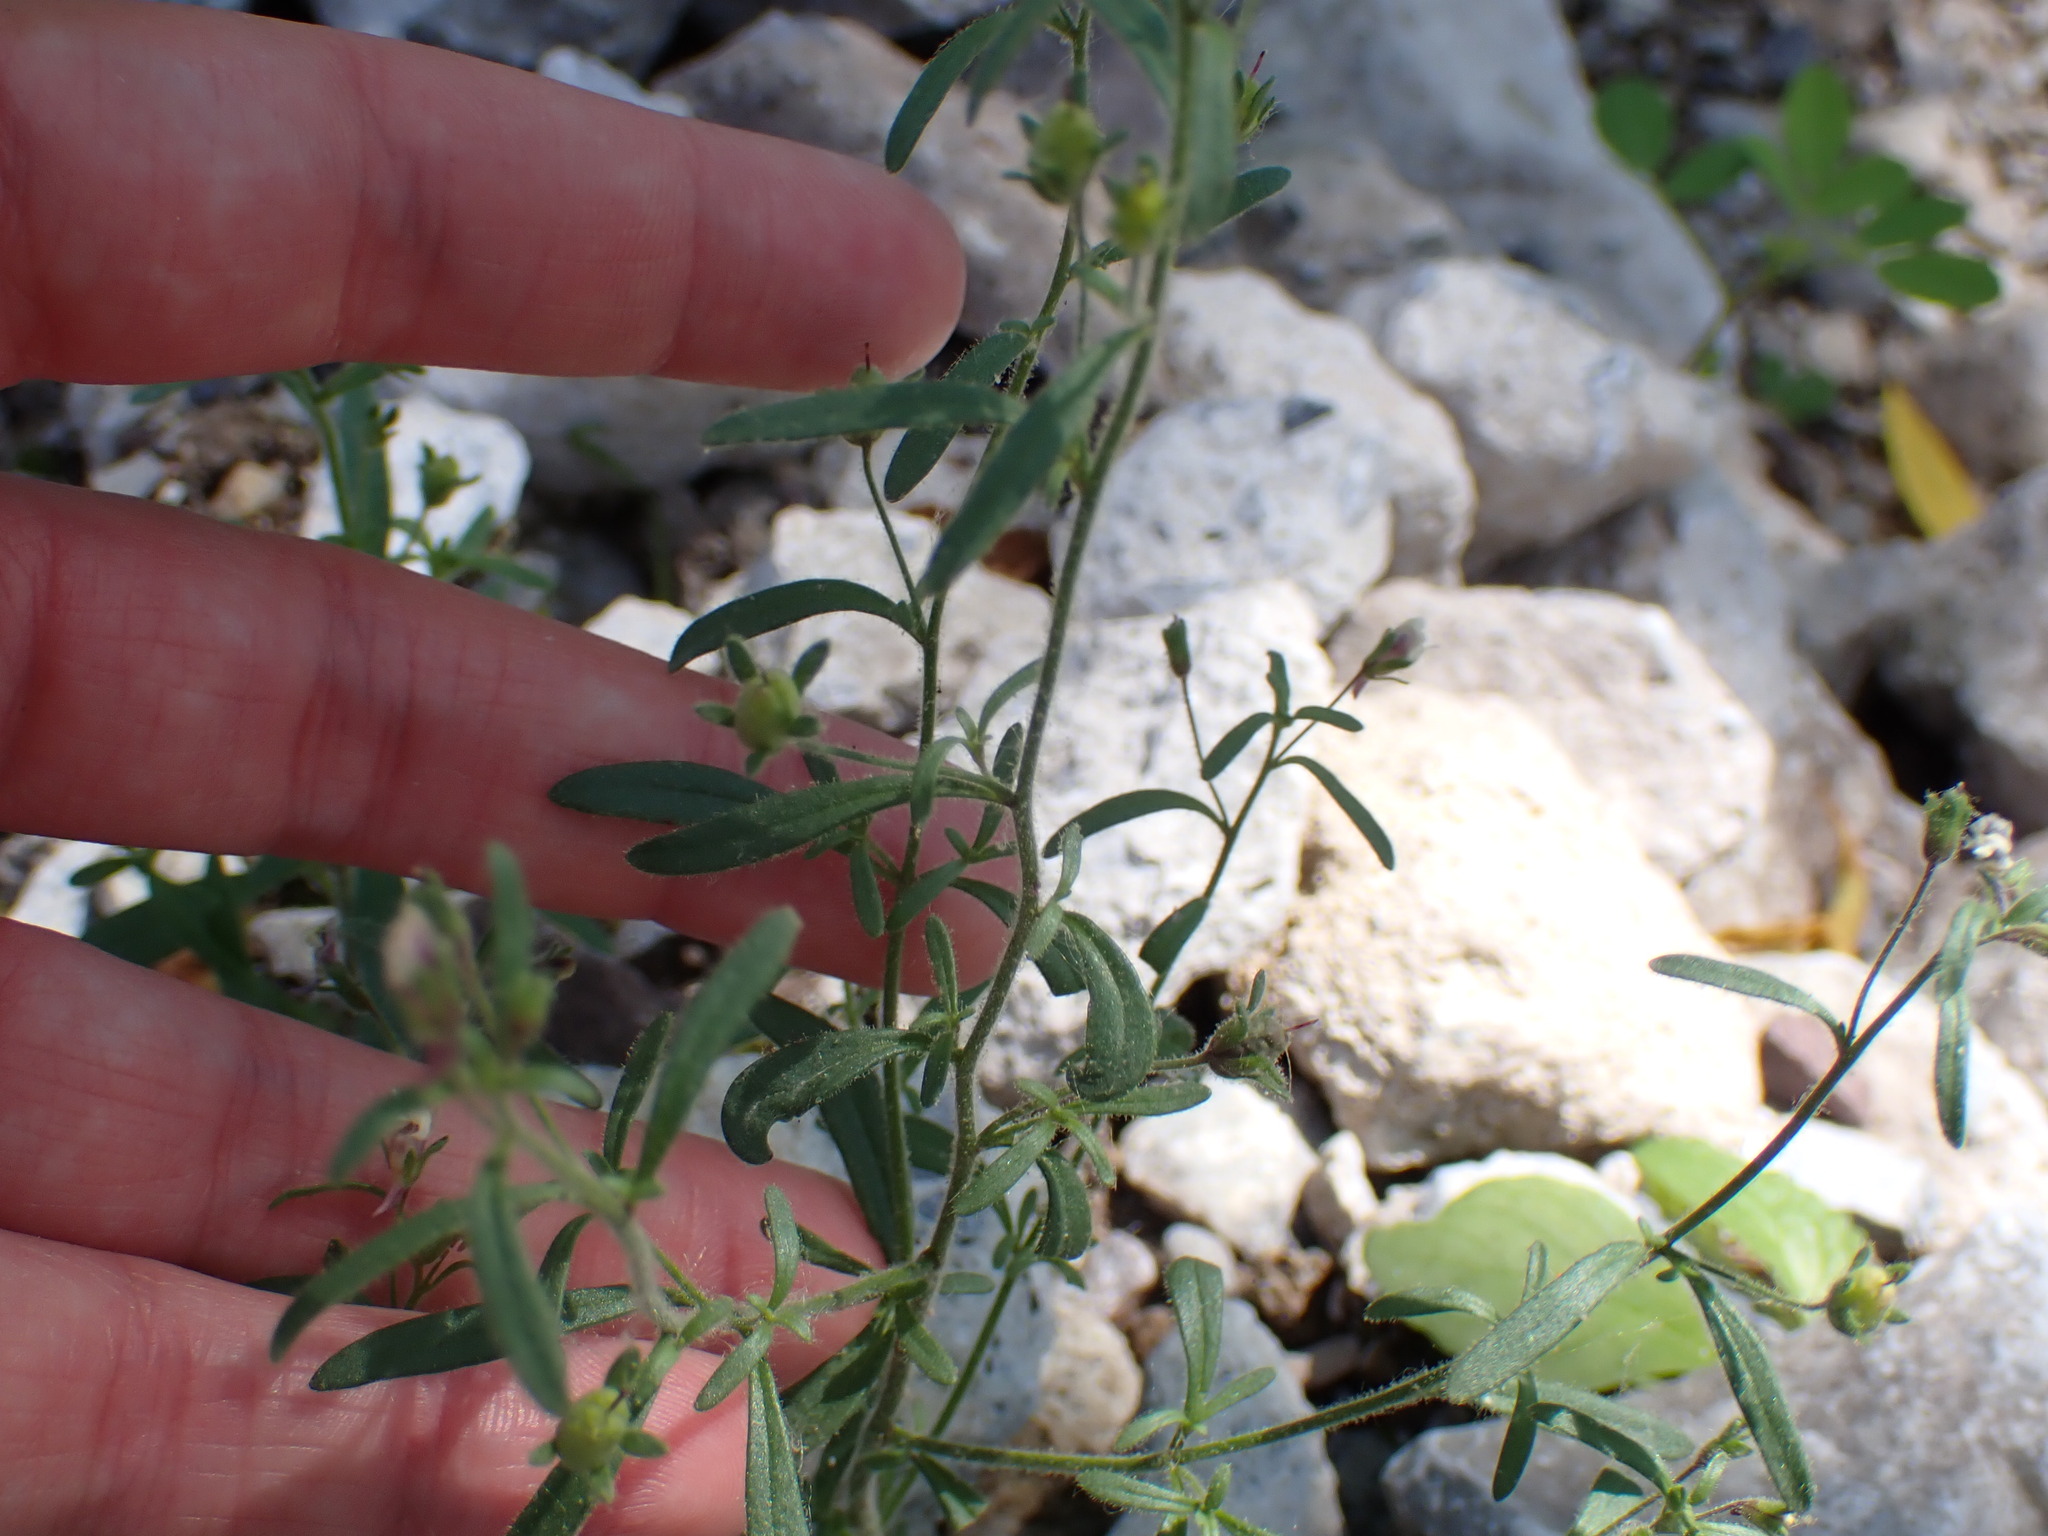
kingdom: Plantae
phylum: Tracheophyta
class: Magnoliopsida
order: Lamiales
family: Plantaginaceae
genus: Chaenorhinum
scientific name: Chaenorhinum minus
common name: Dwarf snapdragon
